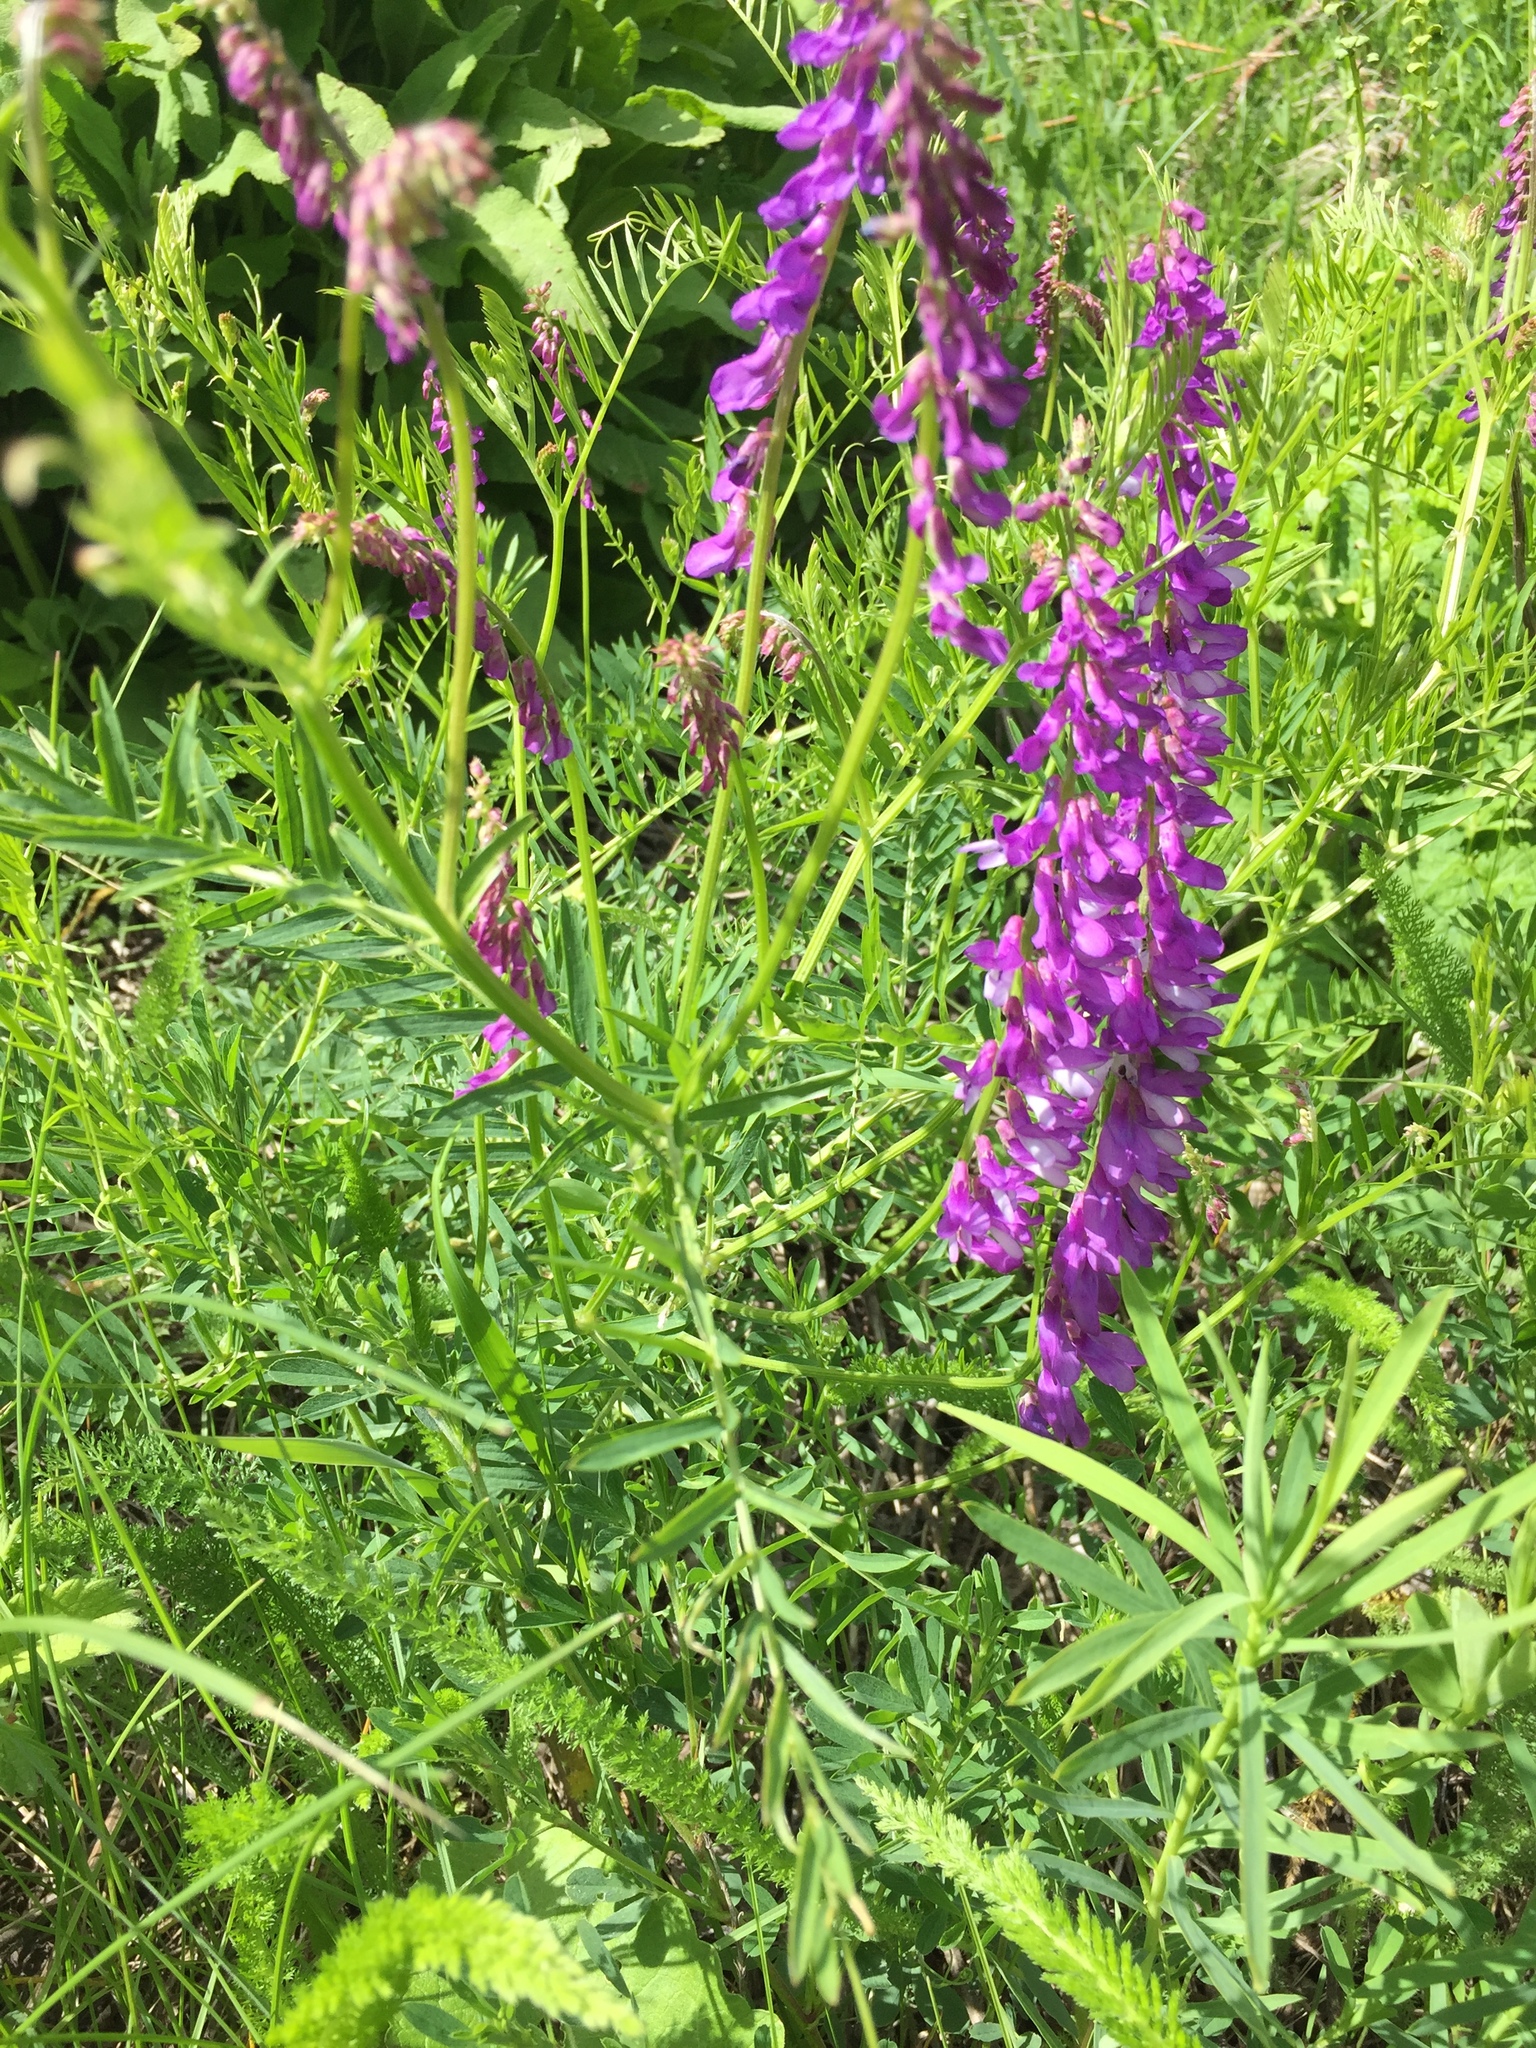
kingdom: Plantae
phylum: Tracheophyta
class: Magnoliopsida
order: Fabales
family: Fabaceae
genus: Vicia
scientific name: Vicia tenuifolia
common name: Fine-leaved vetch
